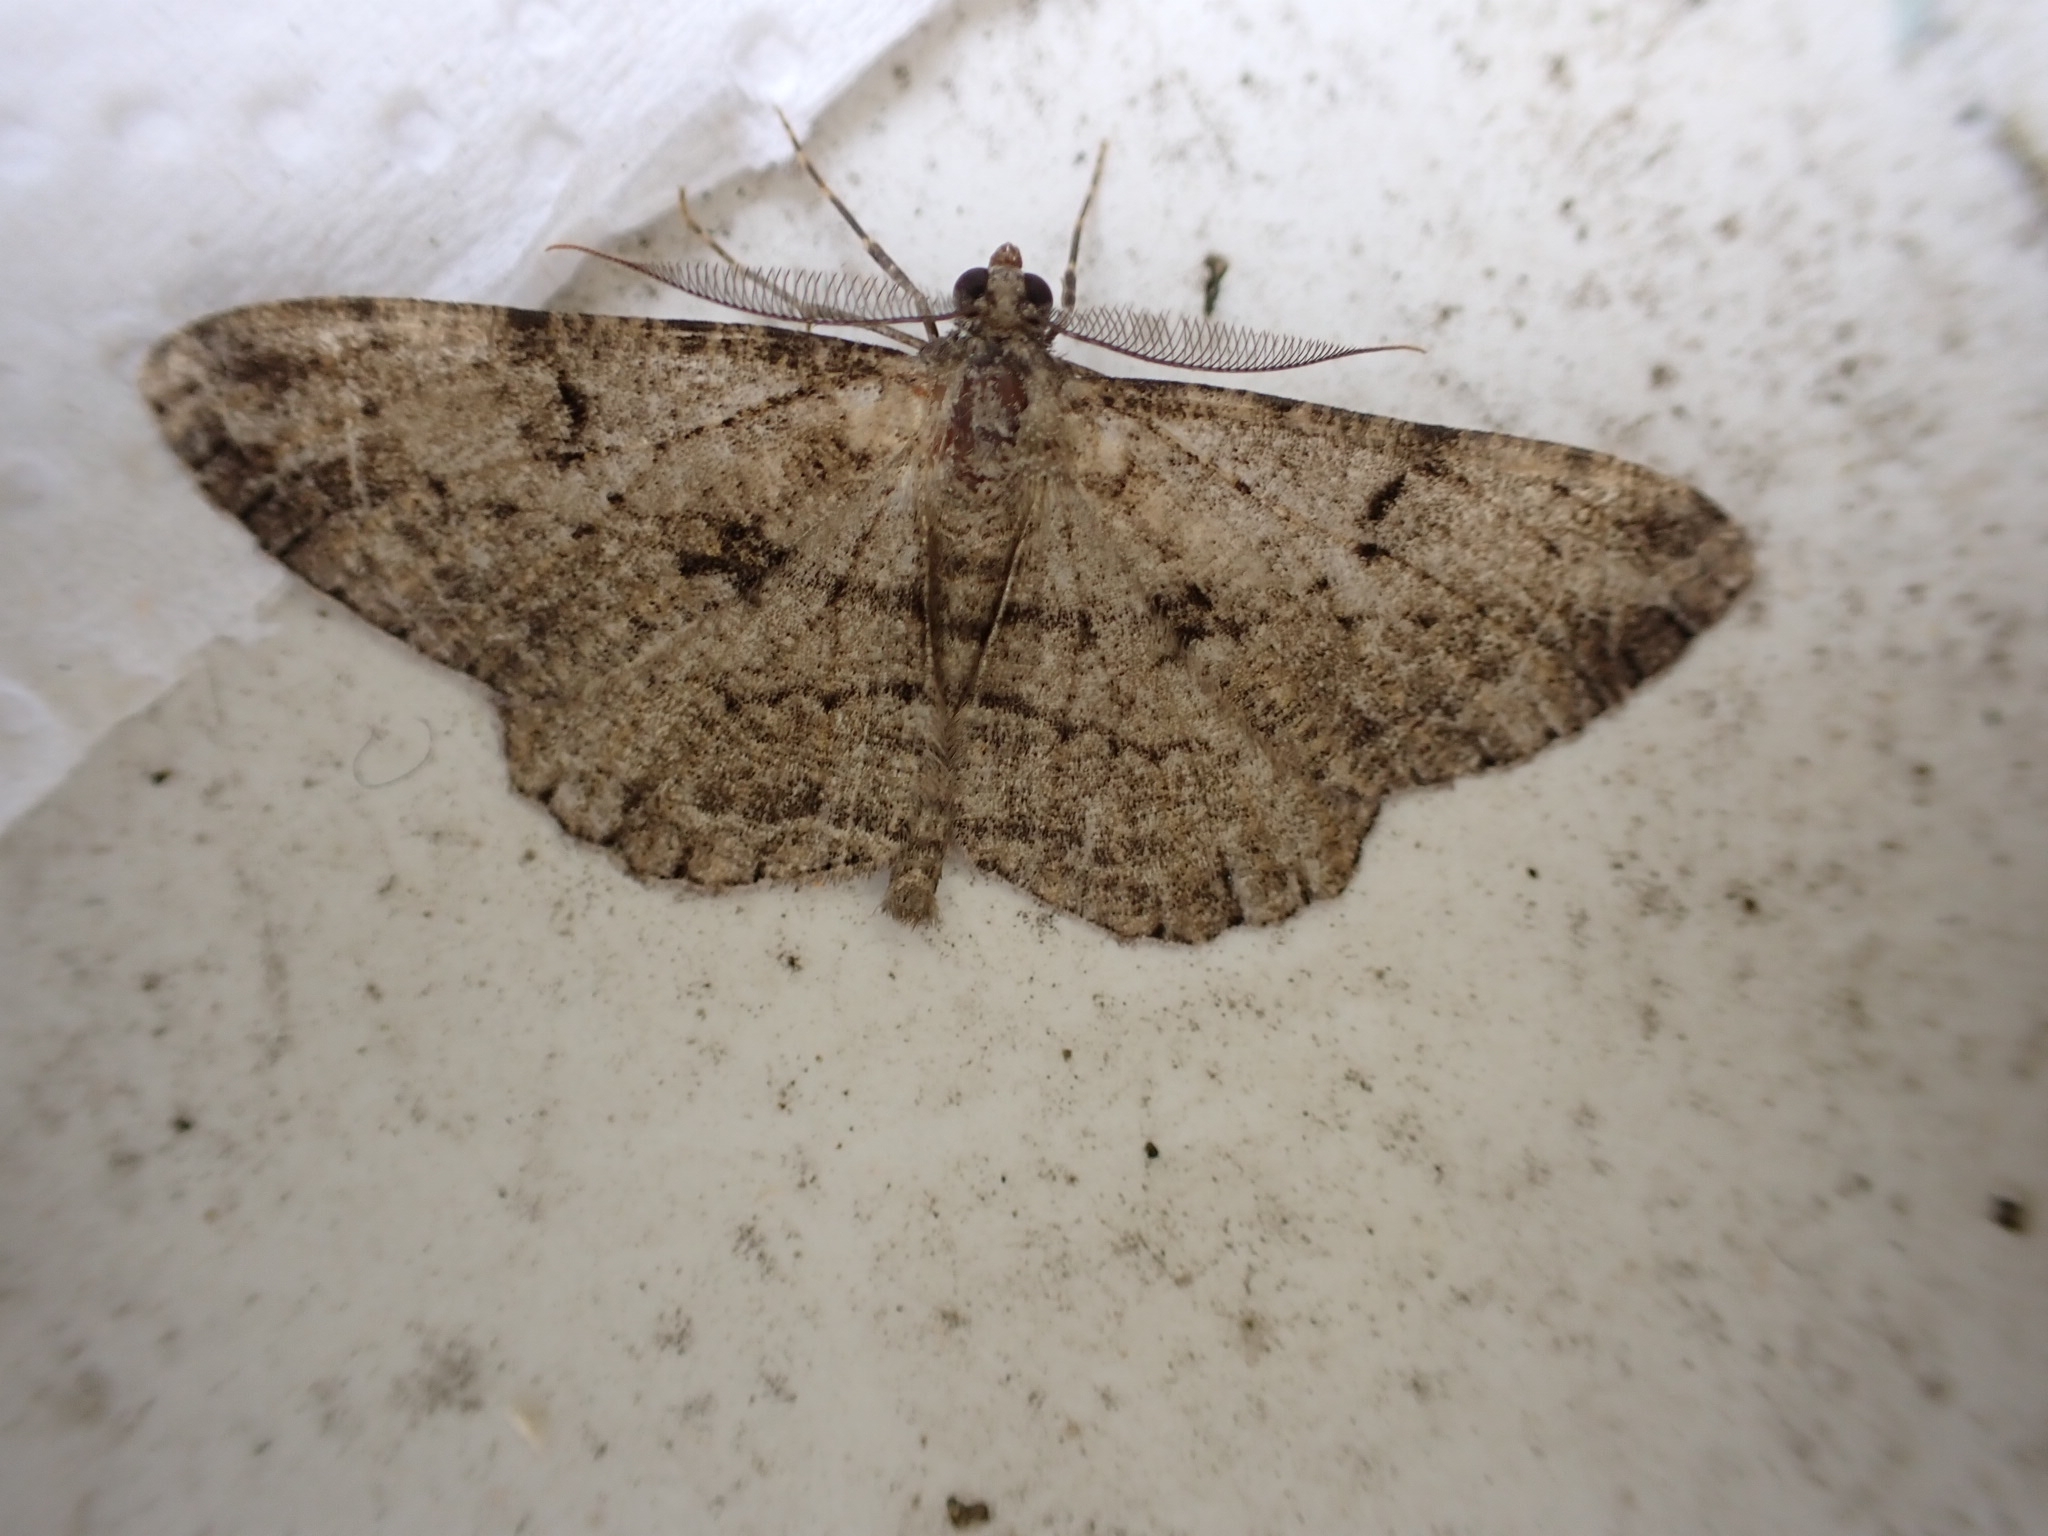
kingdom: Animalia
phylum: Arthropoda
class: Insecta
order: Lepidoptera
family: Geometridae
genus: Peribatodes
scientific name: Peribatodes rhomboidaria
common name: Willow beauty
